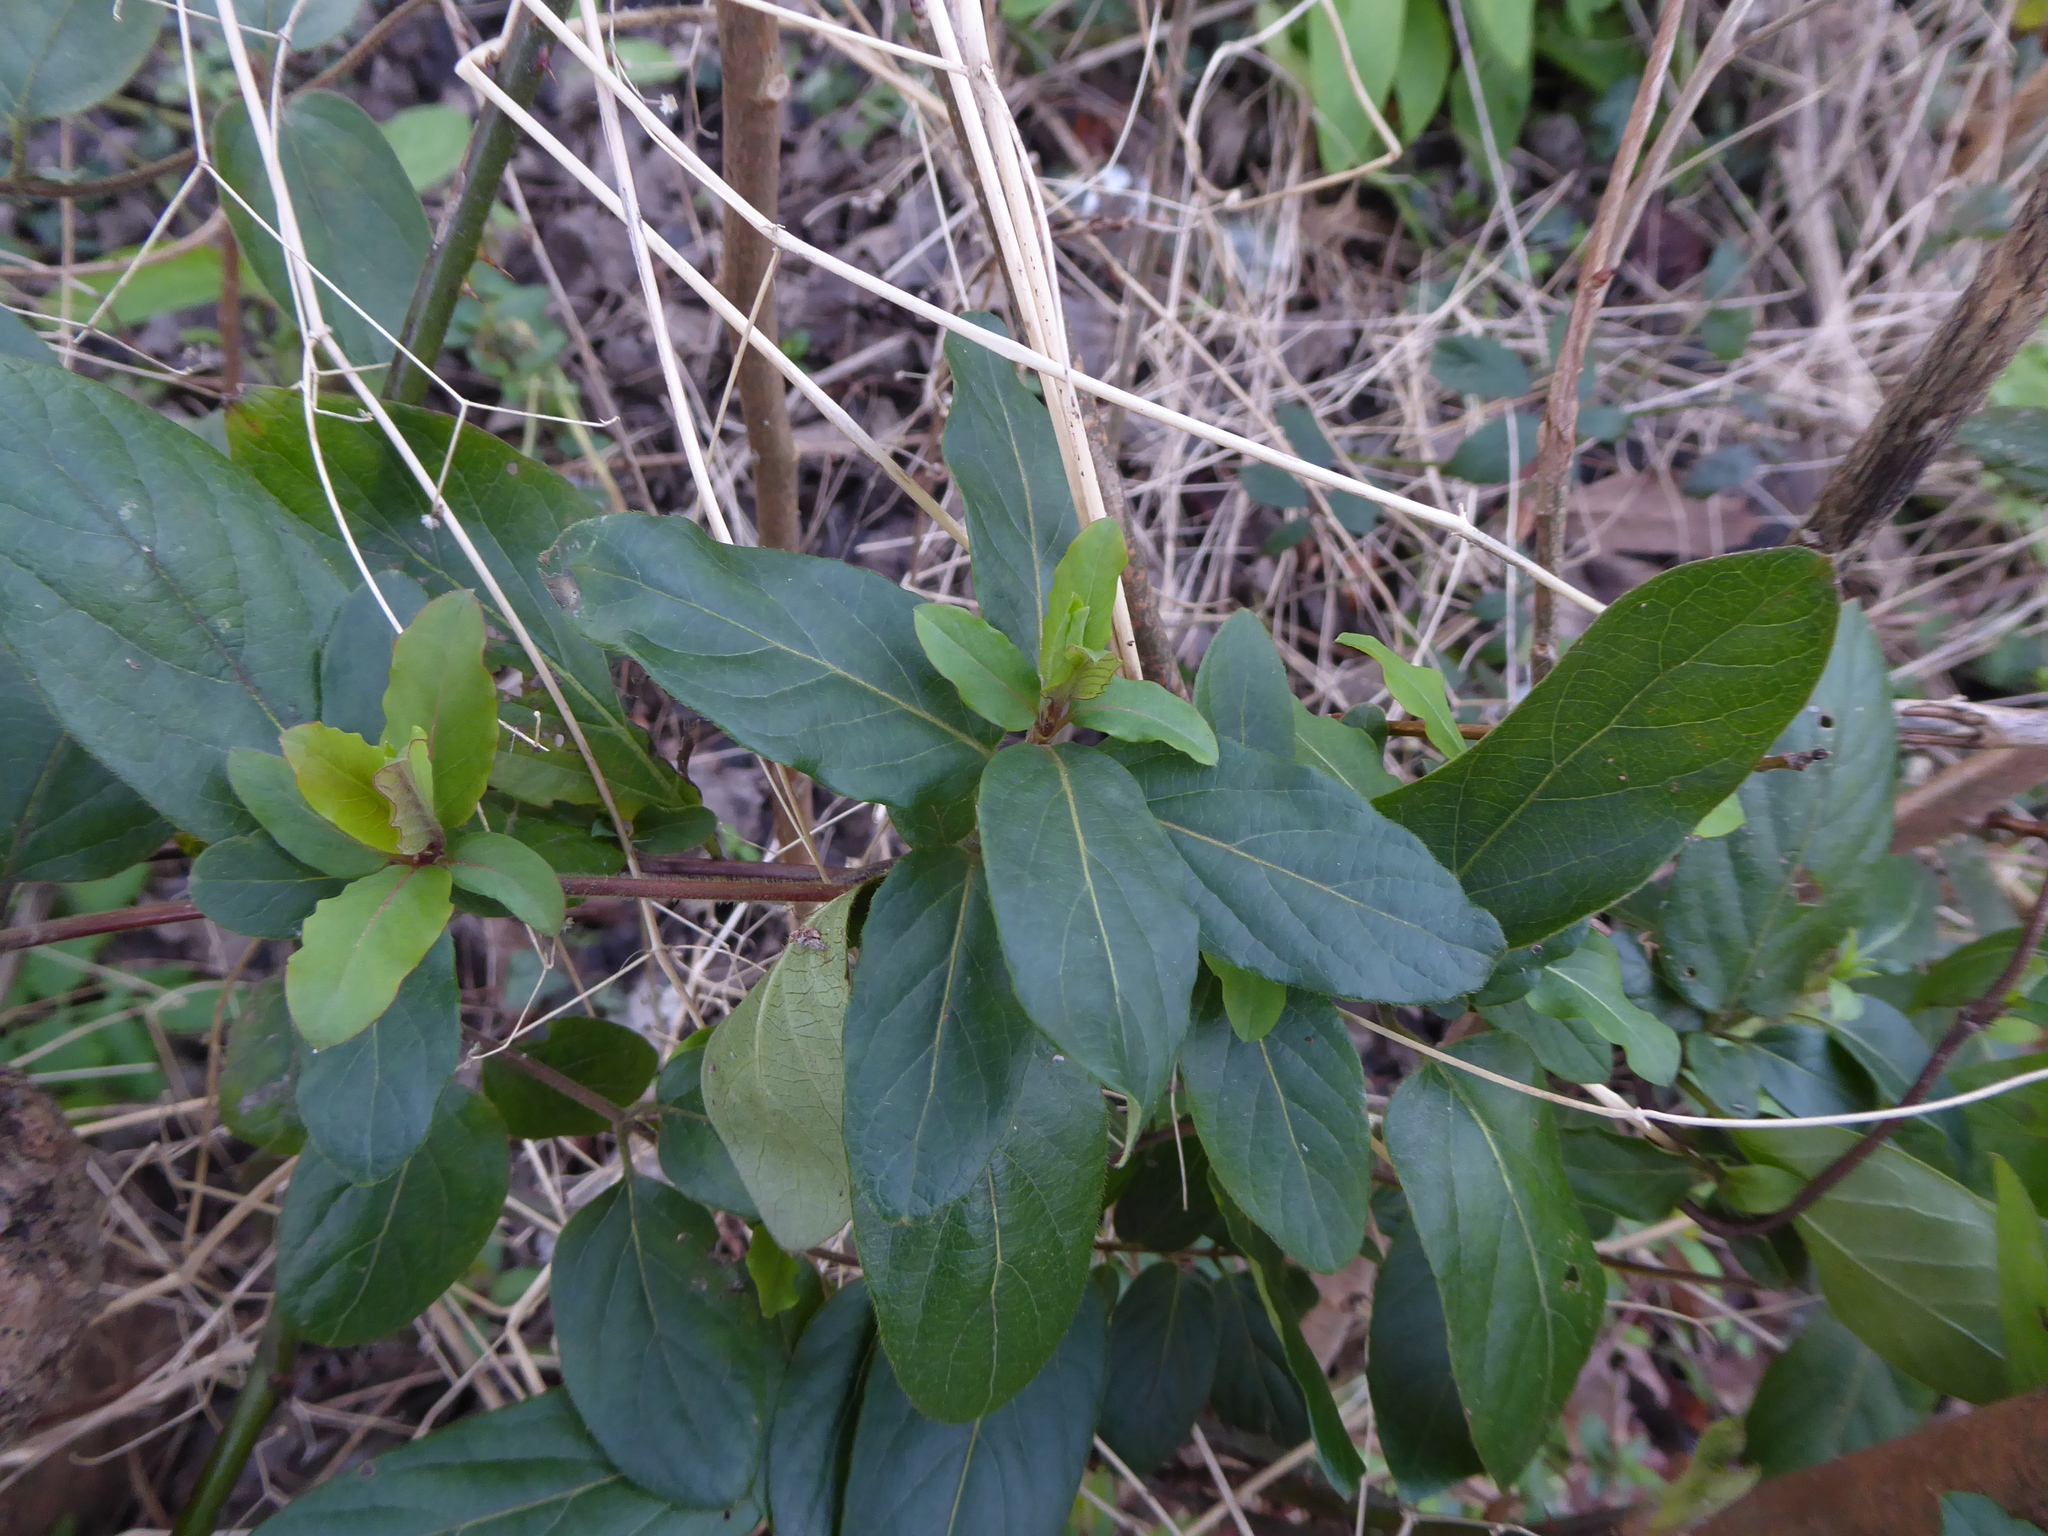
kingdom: Plantae
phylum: Tracheophyta
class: Magnoliopsida
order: Dipsacales
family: Caprifoliaceae
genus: Lonicera
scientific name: Lonicera japonica
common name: Japanese honeysuckle
